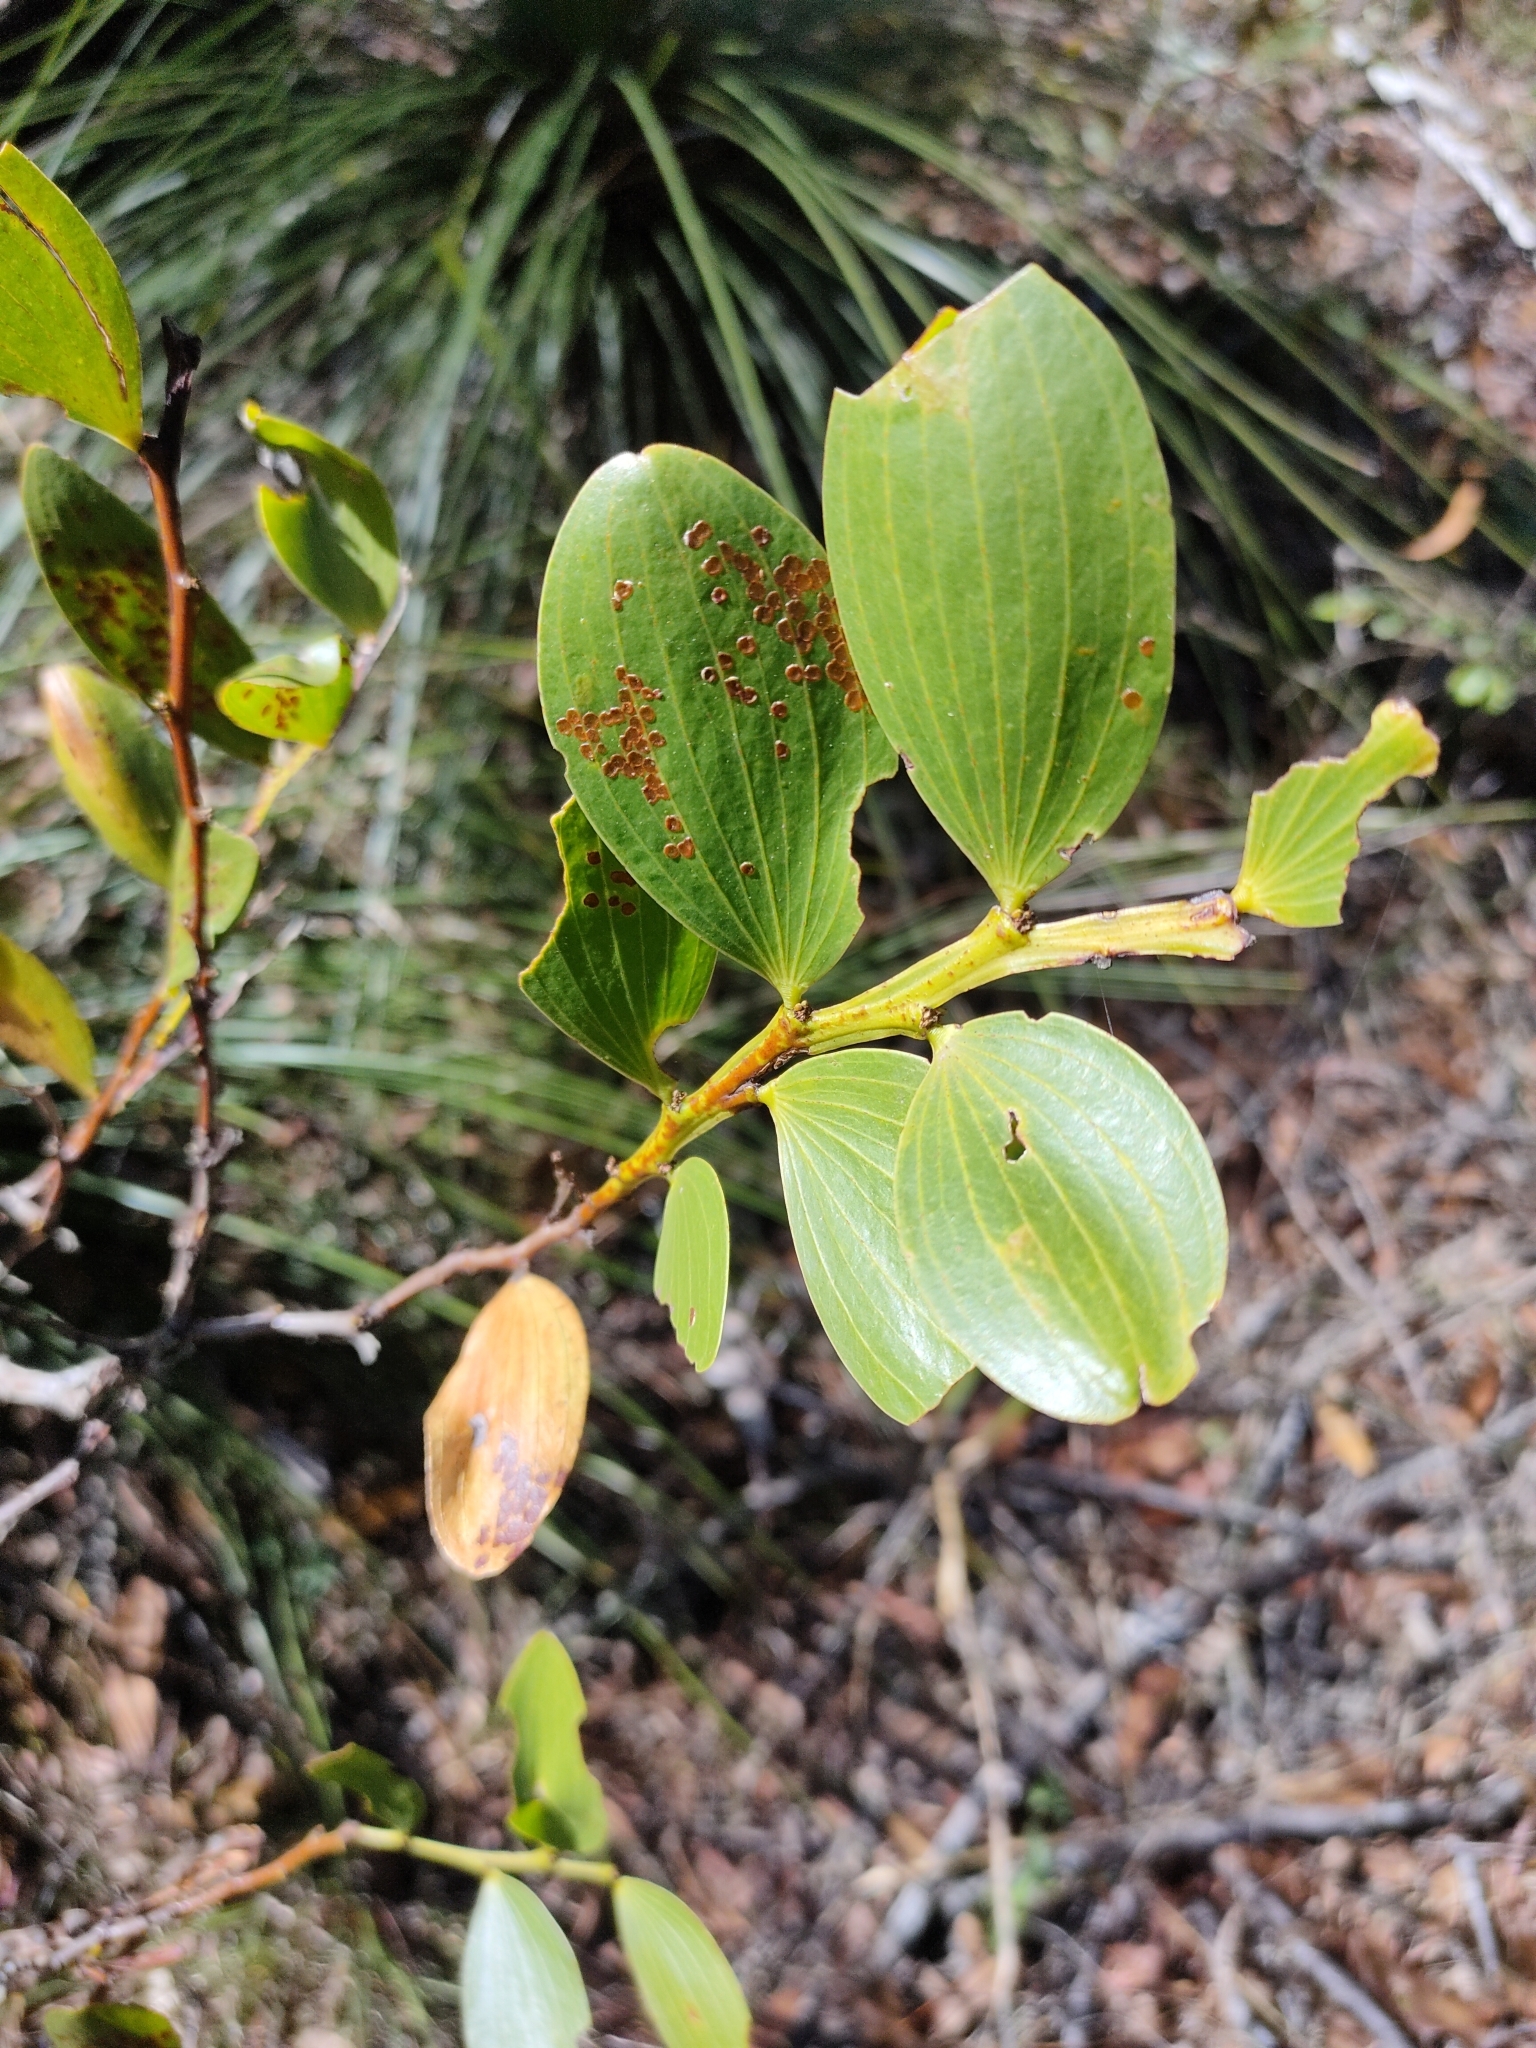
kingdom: Plantae
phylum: Tracheophyta
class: Magnoliopsida
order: Fabales
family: Fabaceae
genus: Acacia
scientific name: Acacia complanata
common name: Flat-stemmed wattle
